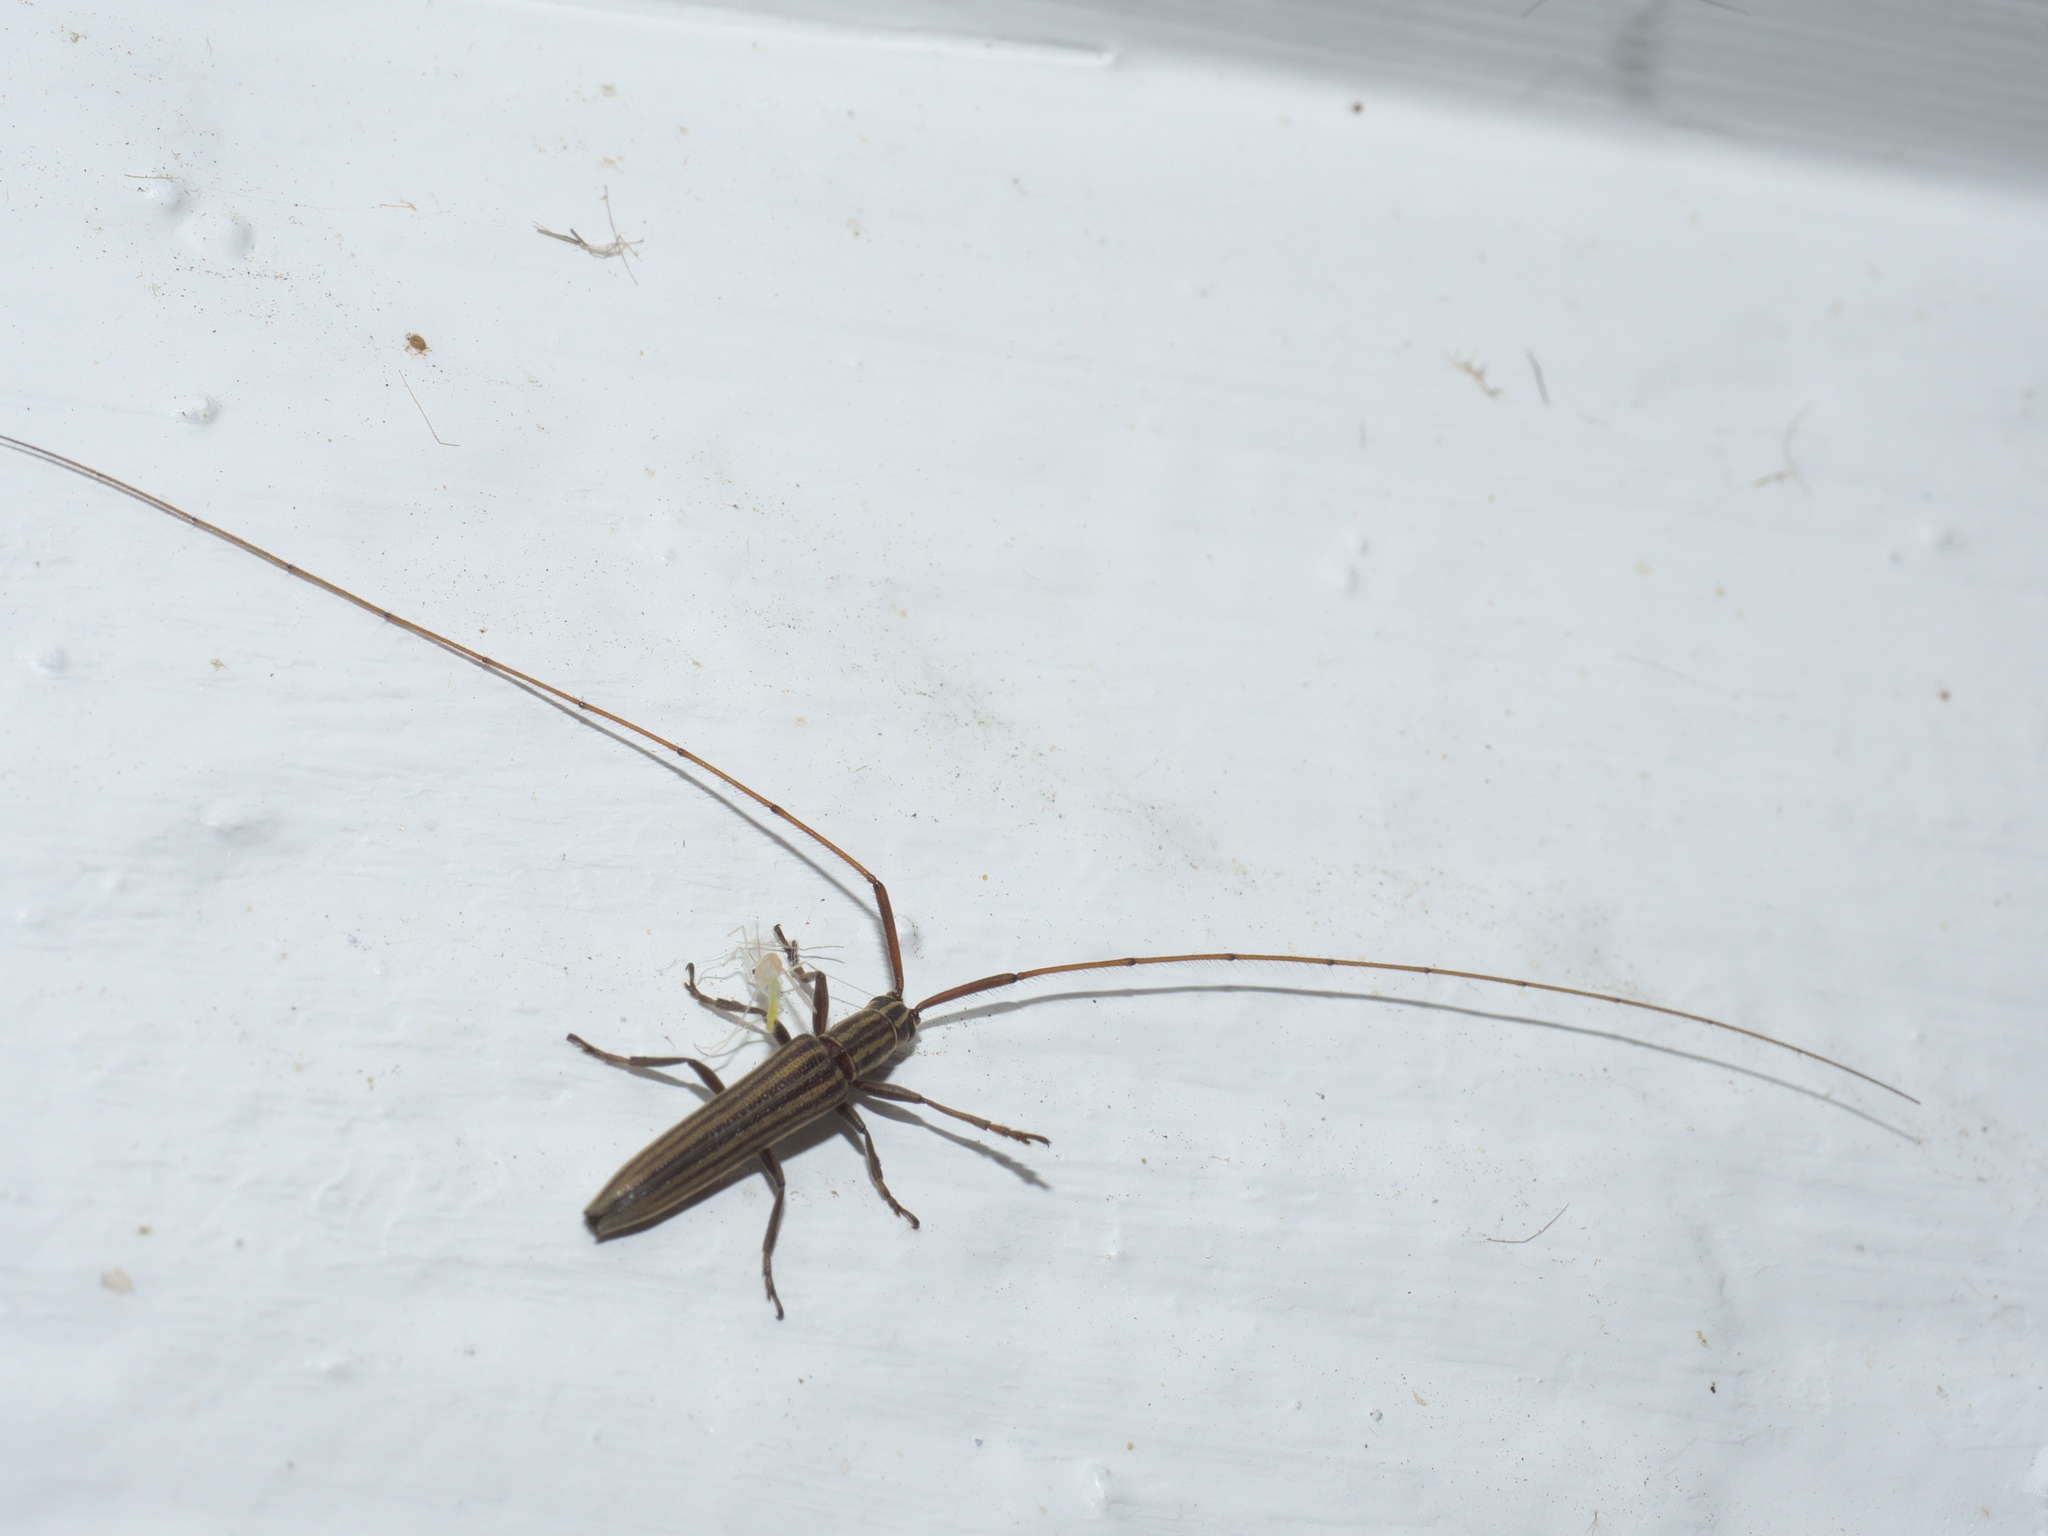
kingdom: Animalia
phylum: Arthropoda
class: Insecta
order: Coleoptera
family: Cerambycidae
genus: Hippopsis
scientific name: Hippopsis
